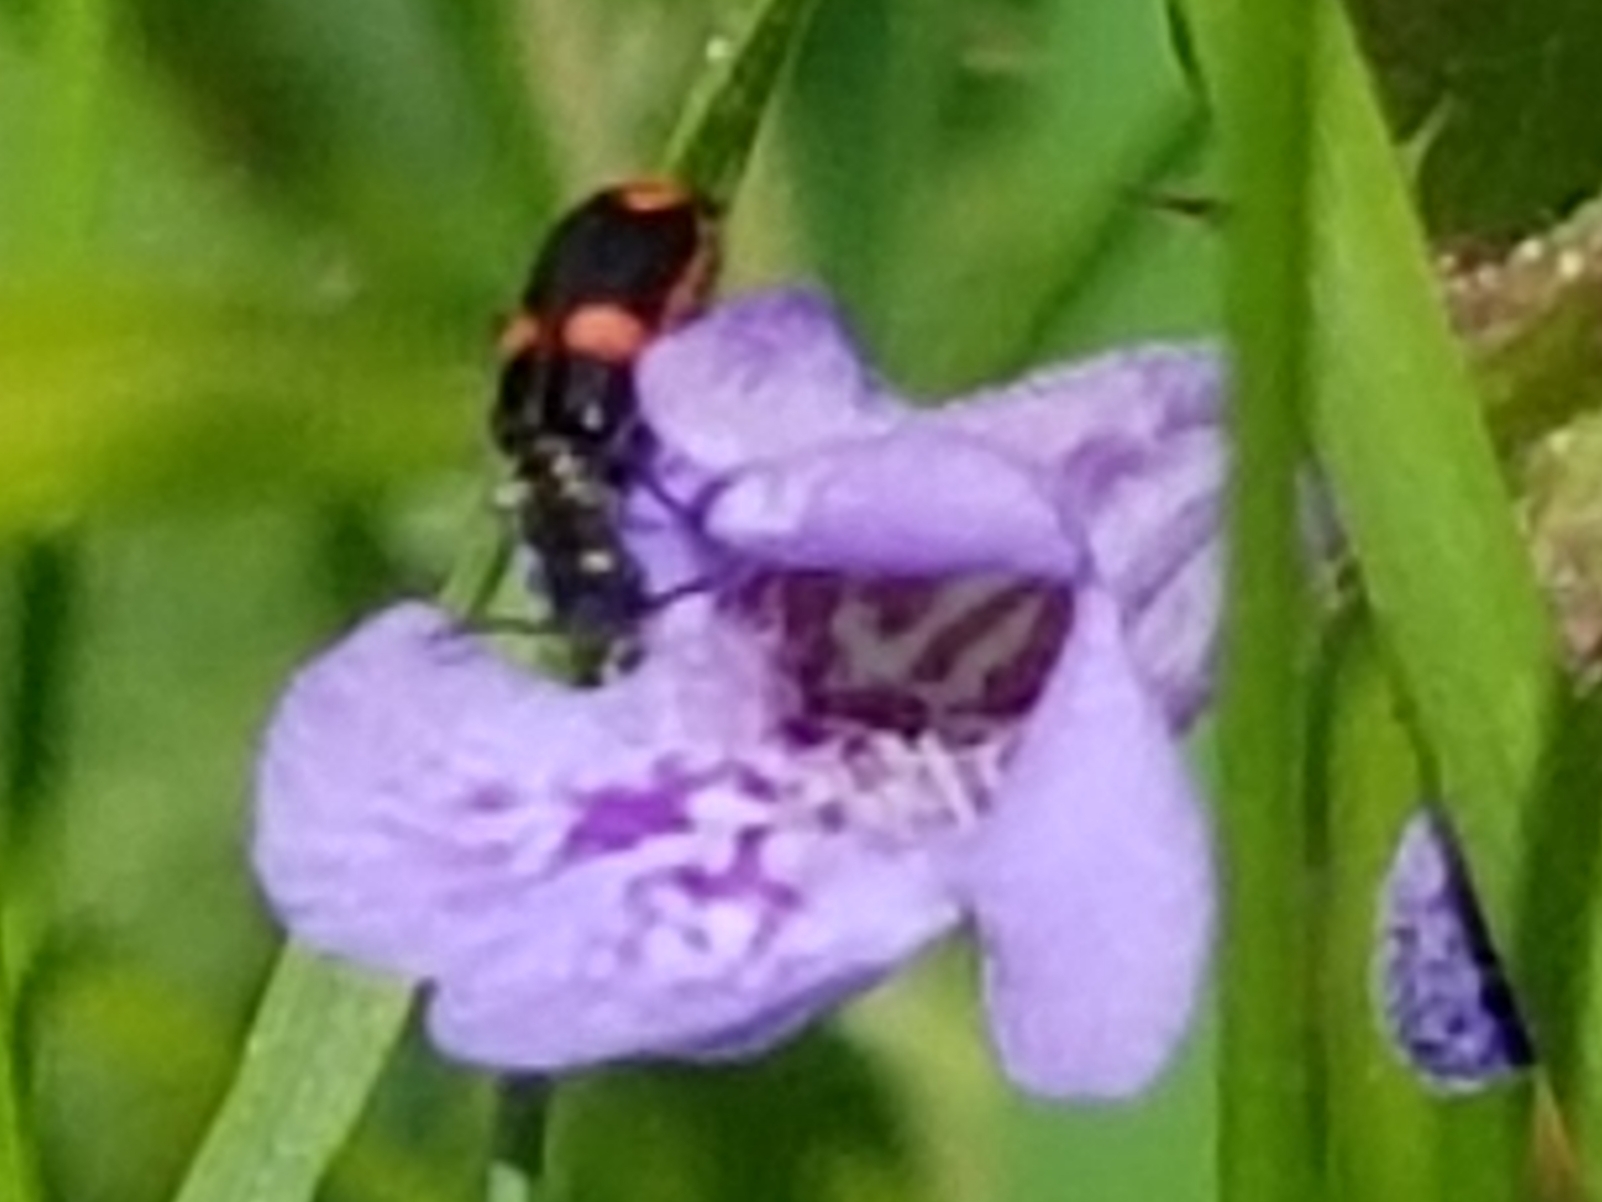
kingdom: Animalia
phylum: Arthropoda
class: Insecta
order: Coleoptera
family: Melyridae
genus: Anthocomus
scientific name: Anthocomus fasciatus
